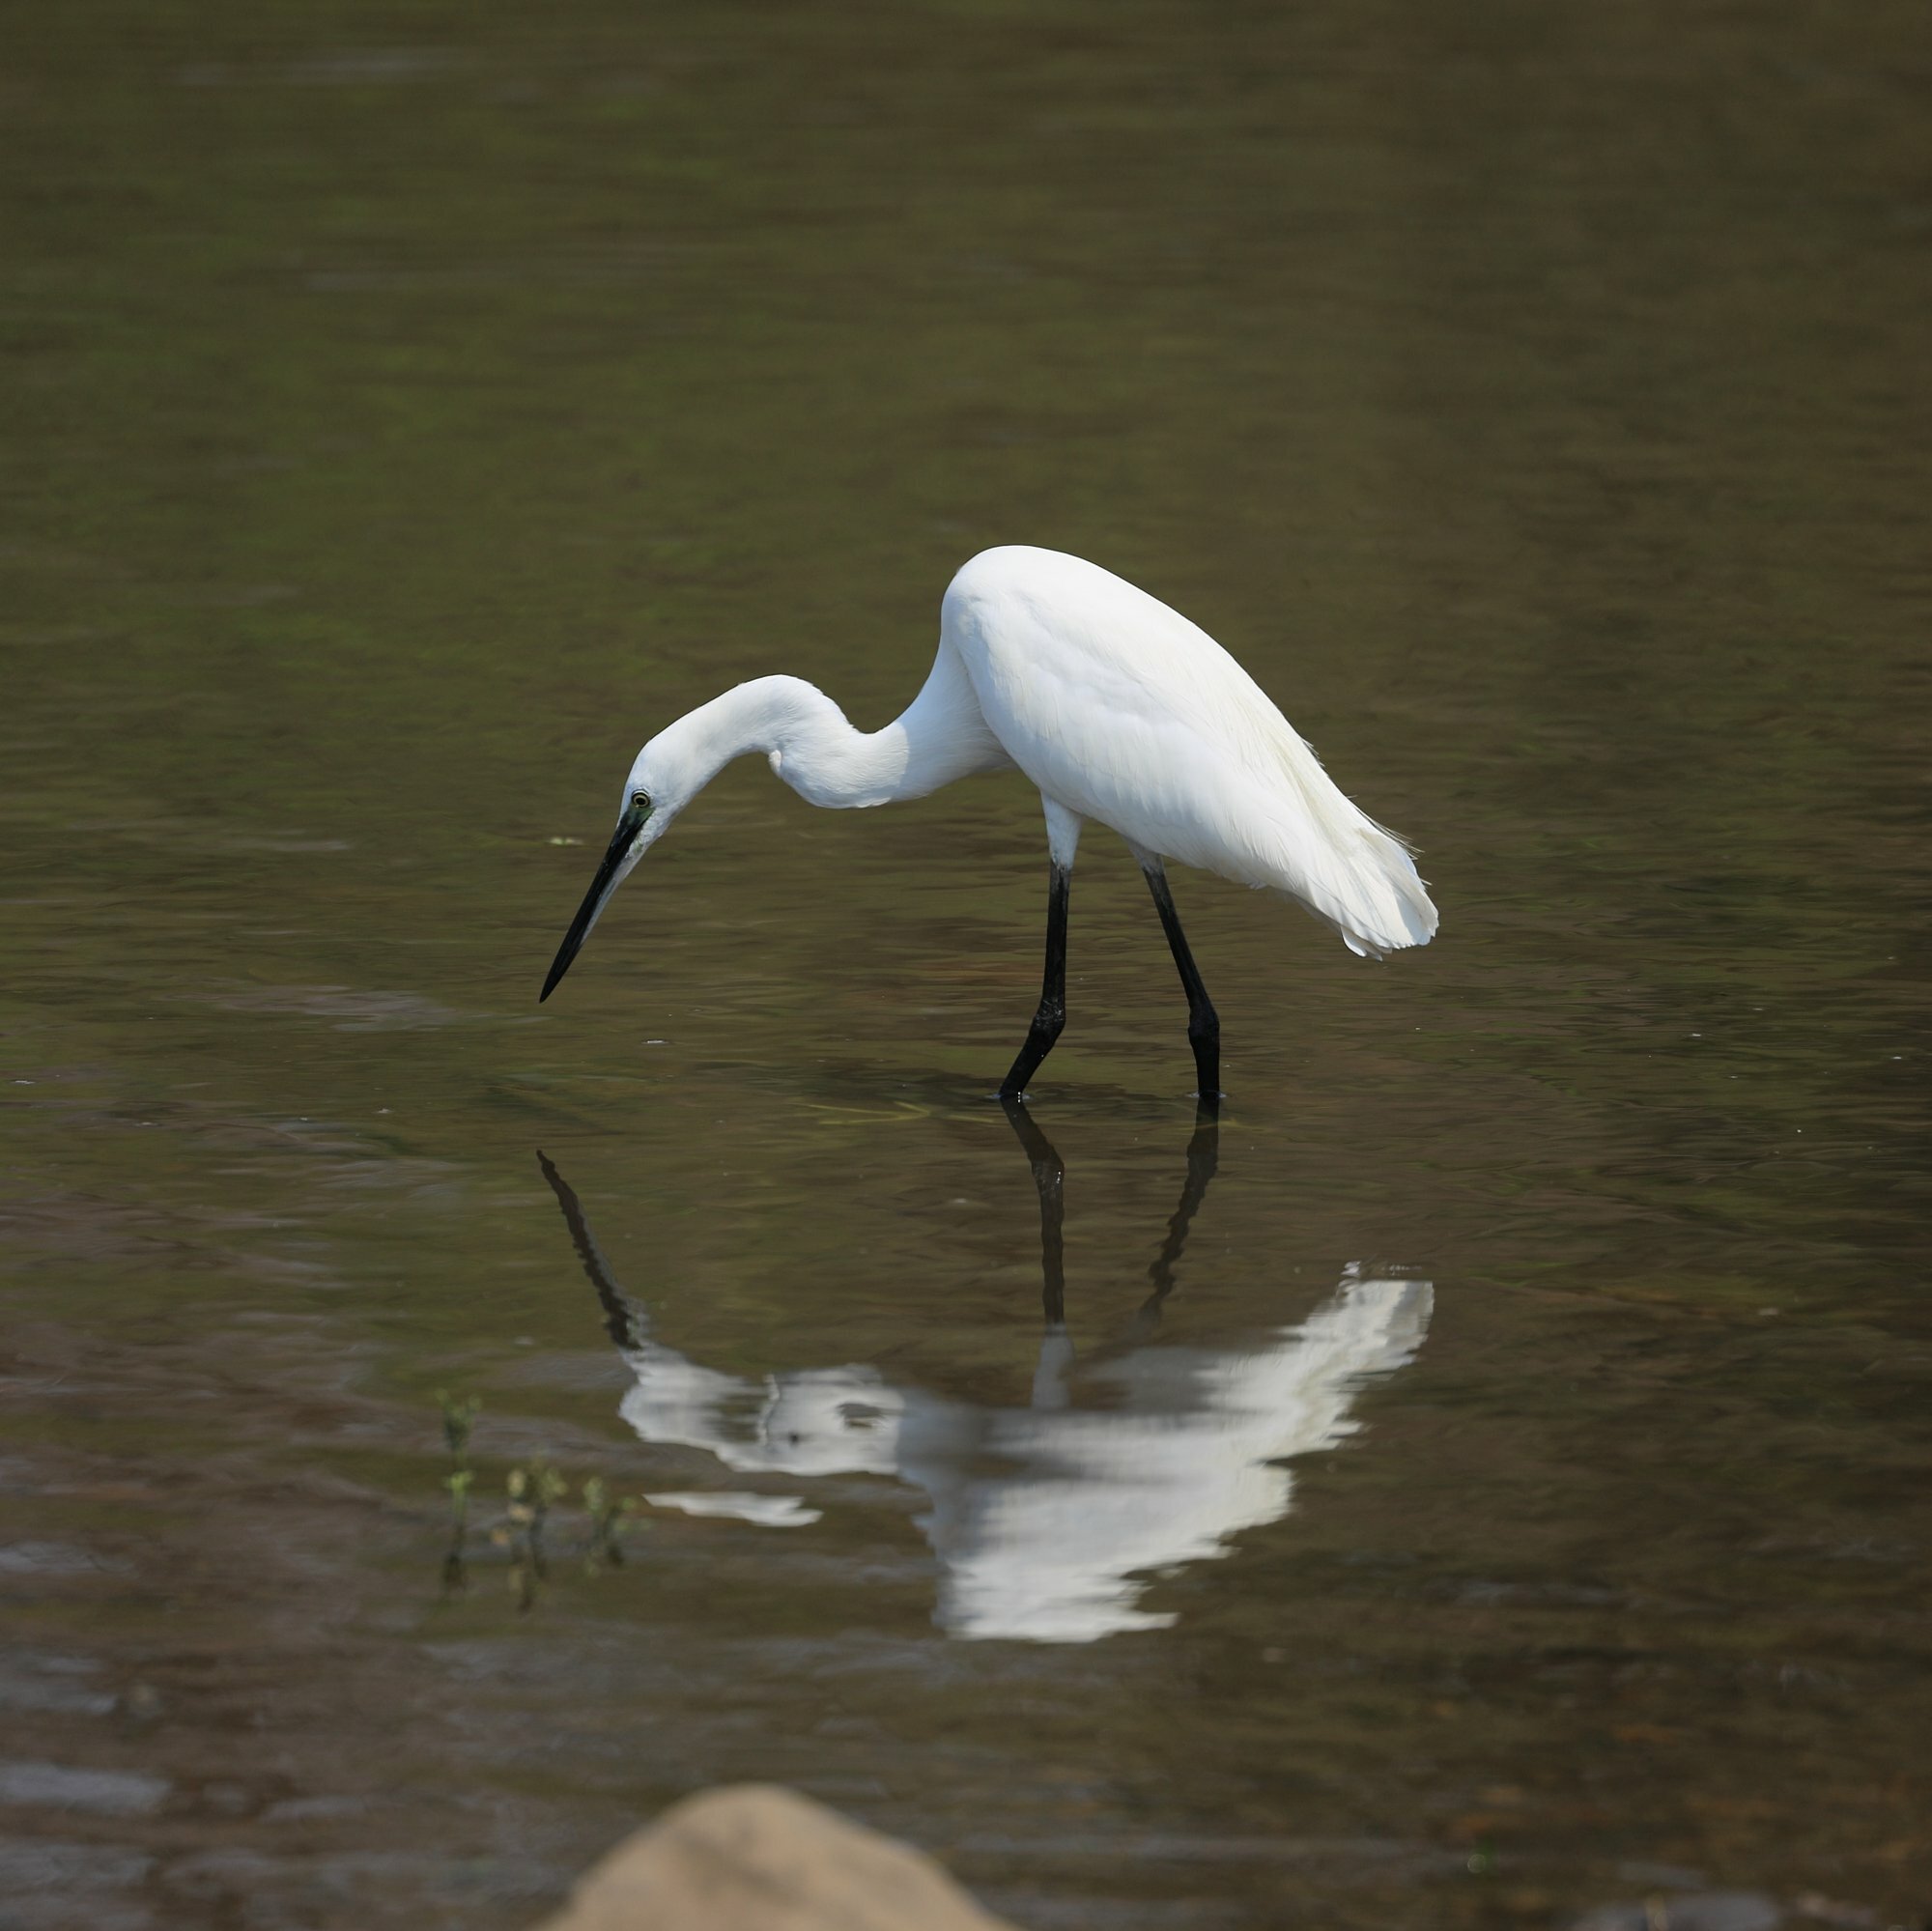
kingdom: Animalia
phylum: Chordata
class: Aves
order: Pelecaniformes
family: Ardeidae
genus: Egretta
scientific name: Egretta garzetta
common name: Little egret
